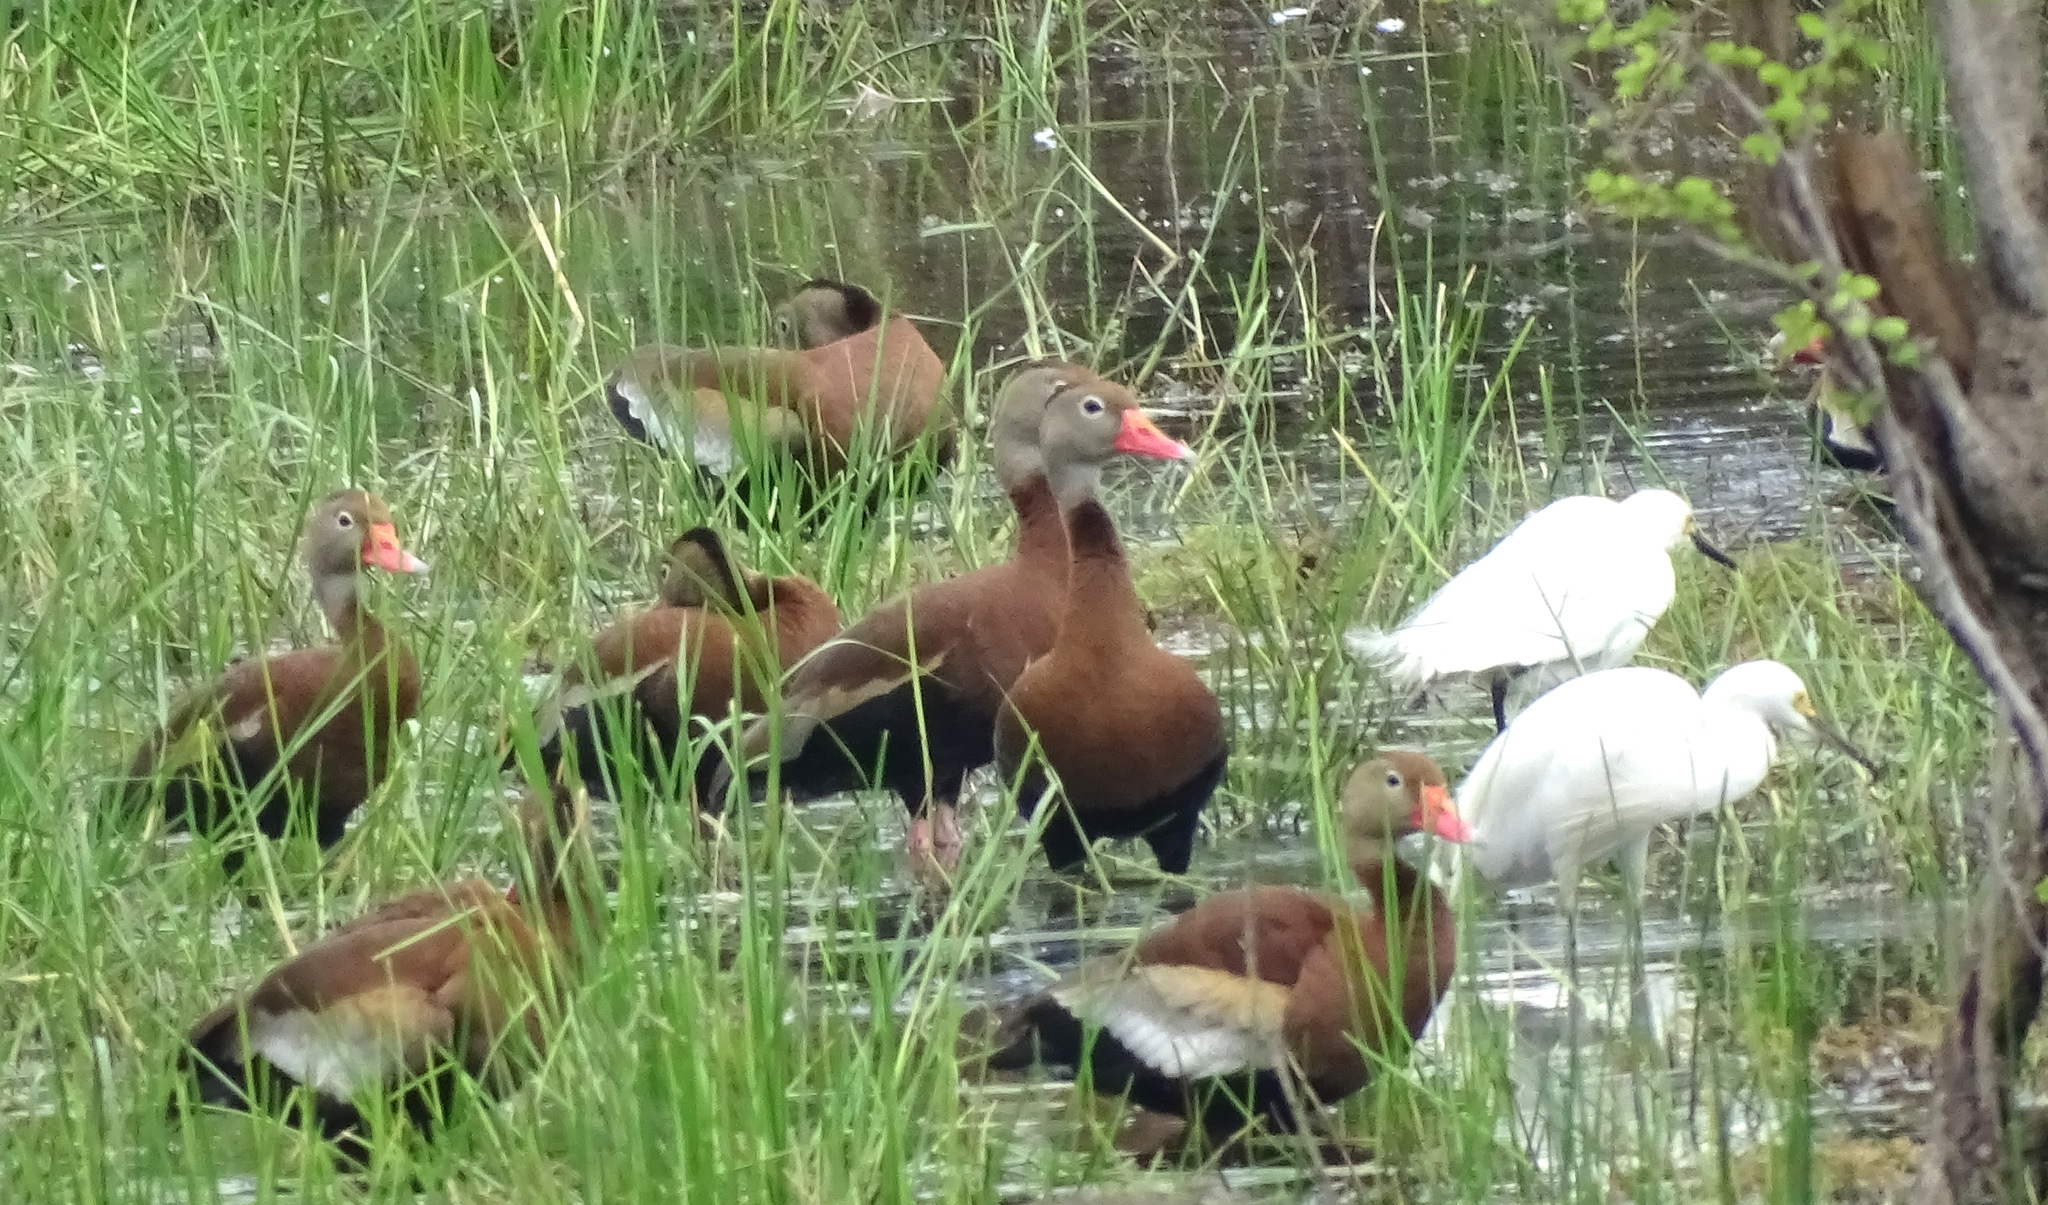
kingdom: Animalia
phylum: Chordata
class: Aves
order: Anseriformes
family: Anatidae
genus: Dendrocygna
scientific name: Dendrocygna autumnalis
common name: Black-bellied whistling duck
